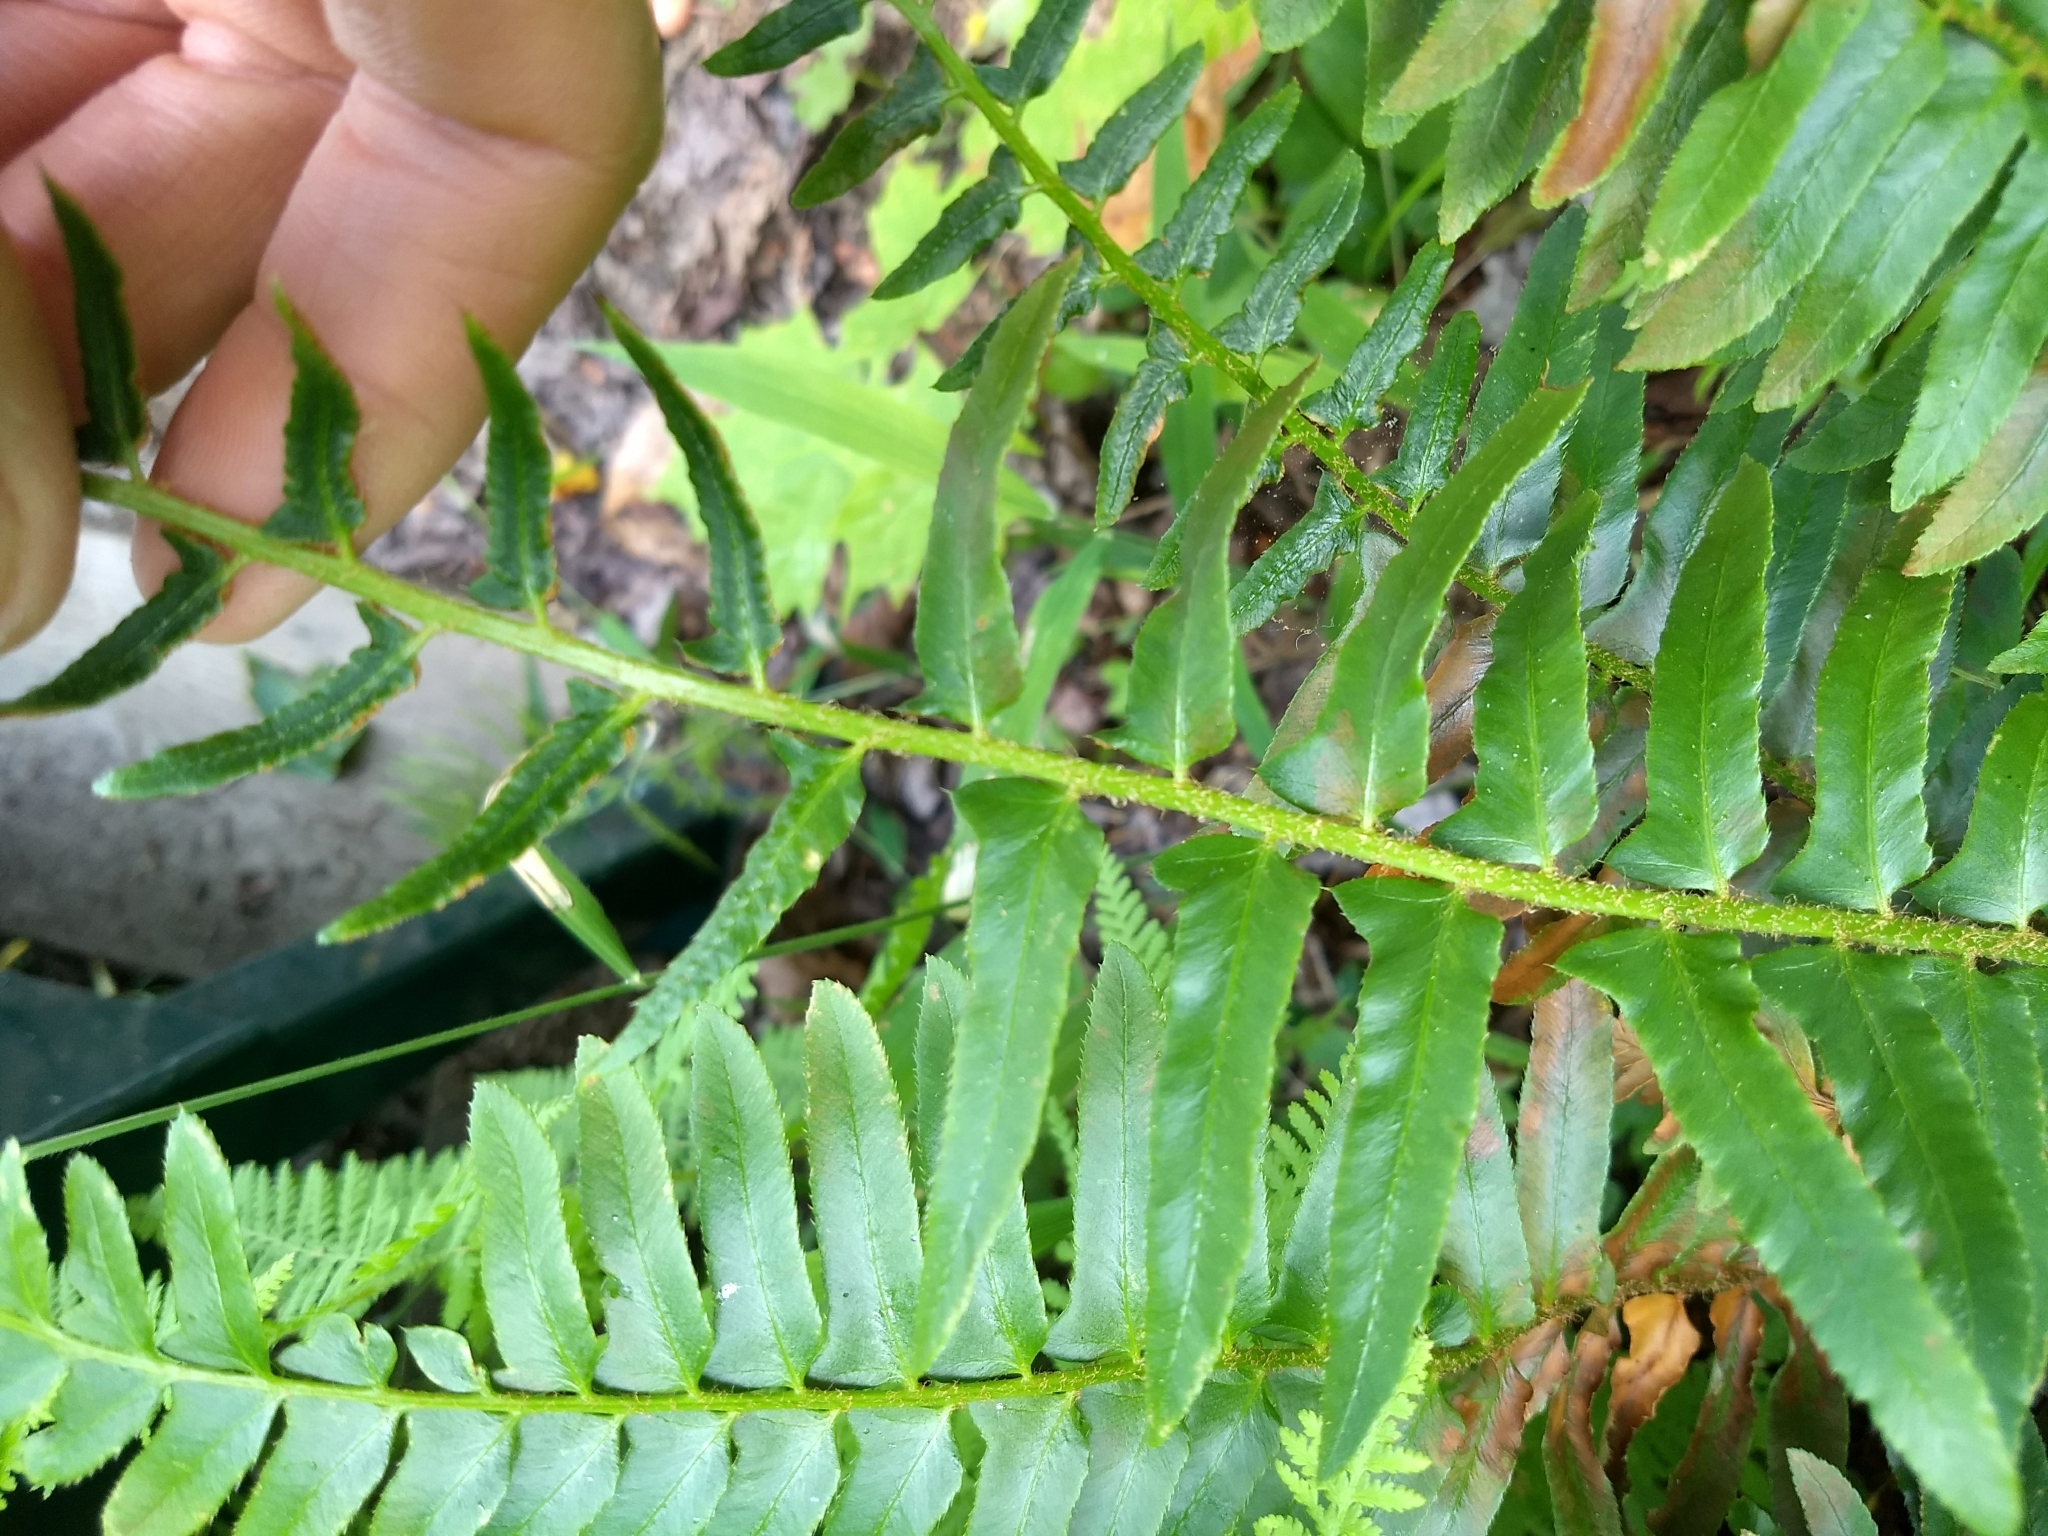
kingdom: Plantae
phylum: Tracheophyta
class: Polypodiopsida
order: Polypodiales
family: Dryopteridaceae
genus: Polystichum
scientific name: Polystichum acrostichoides
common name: Christmas fern
